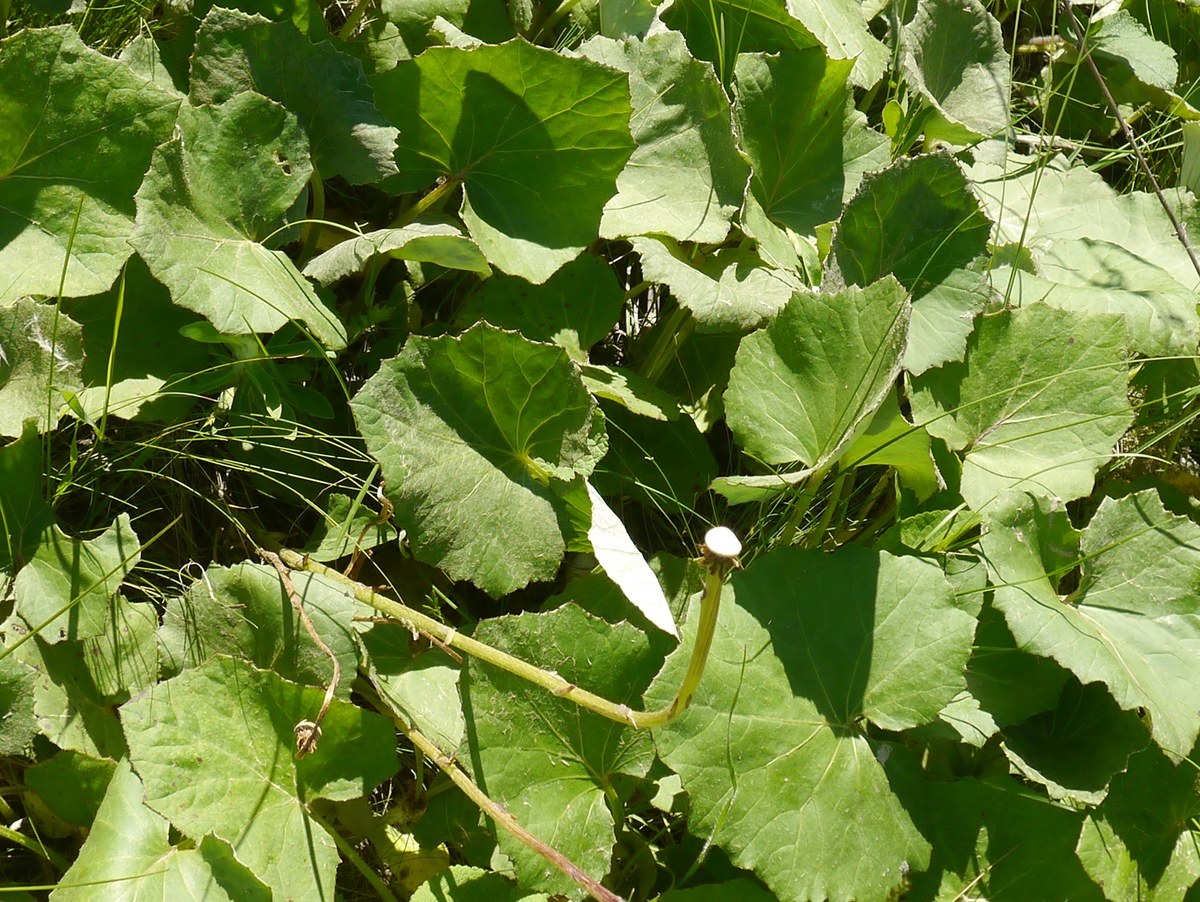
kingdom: Plantae
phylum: Tracheophyta
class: Magnoliopsida
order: Asterales
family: Asteraceae
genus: Tussilago
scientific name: Tussilago farfara
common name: Coltsfoot
